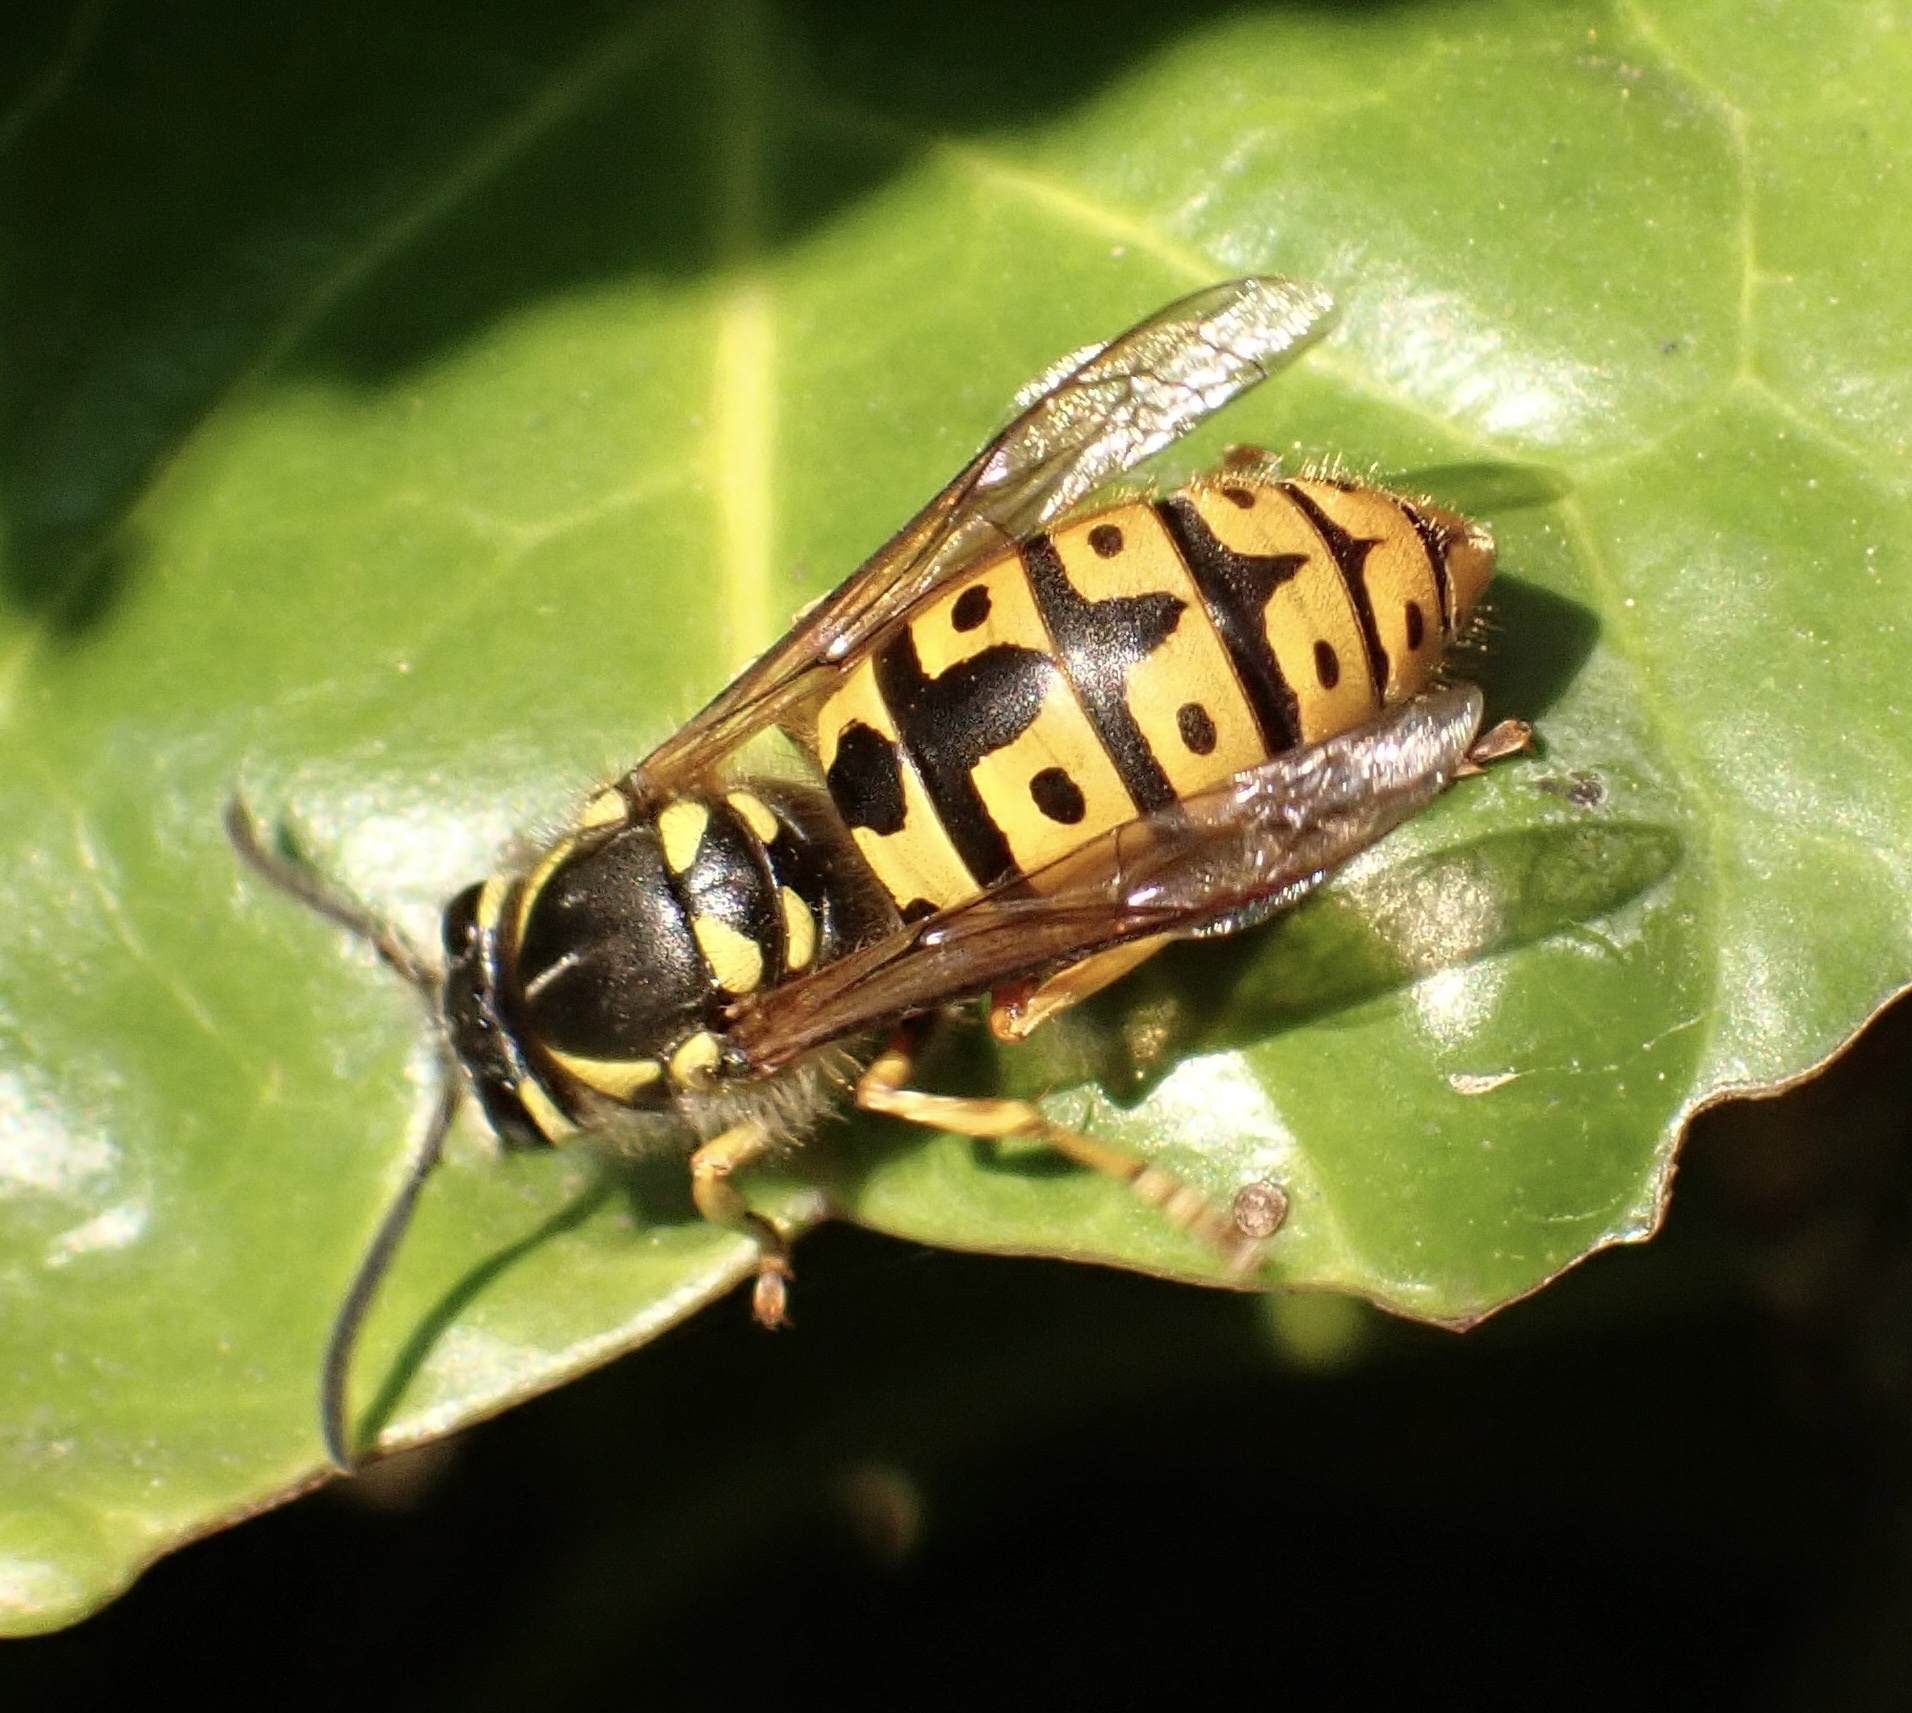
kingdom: Animalia
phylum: Arthropoda
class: Insecta
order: Hymenoptera
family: Vespidae
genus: Vespula
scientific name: Vespula germanica
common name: German wasp
